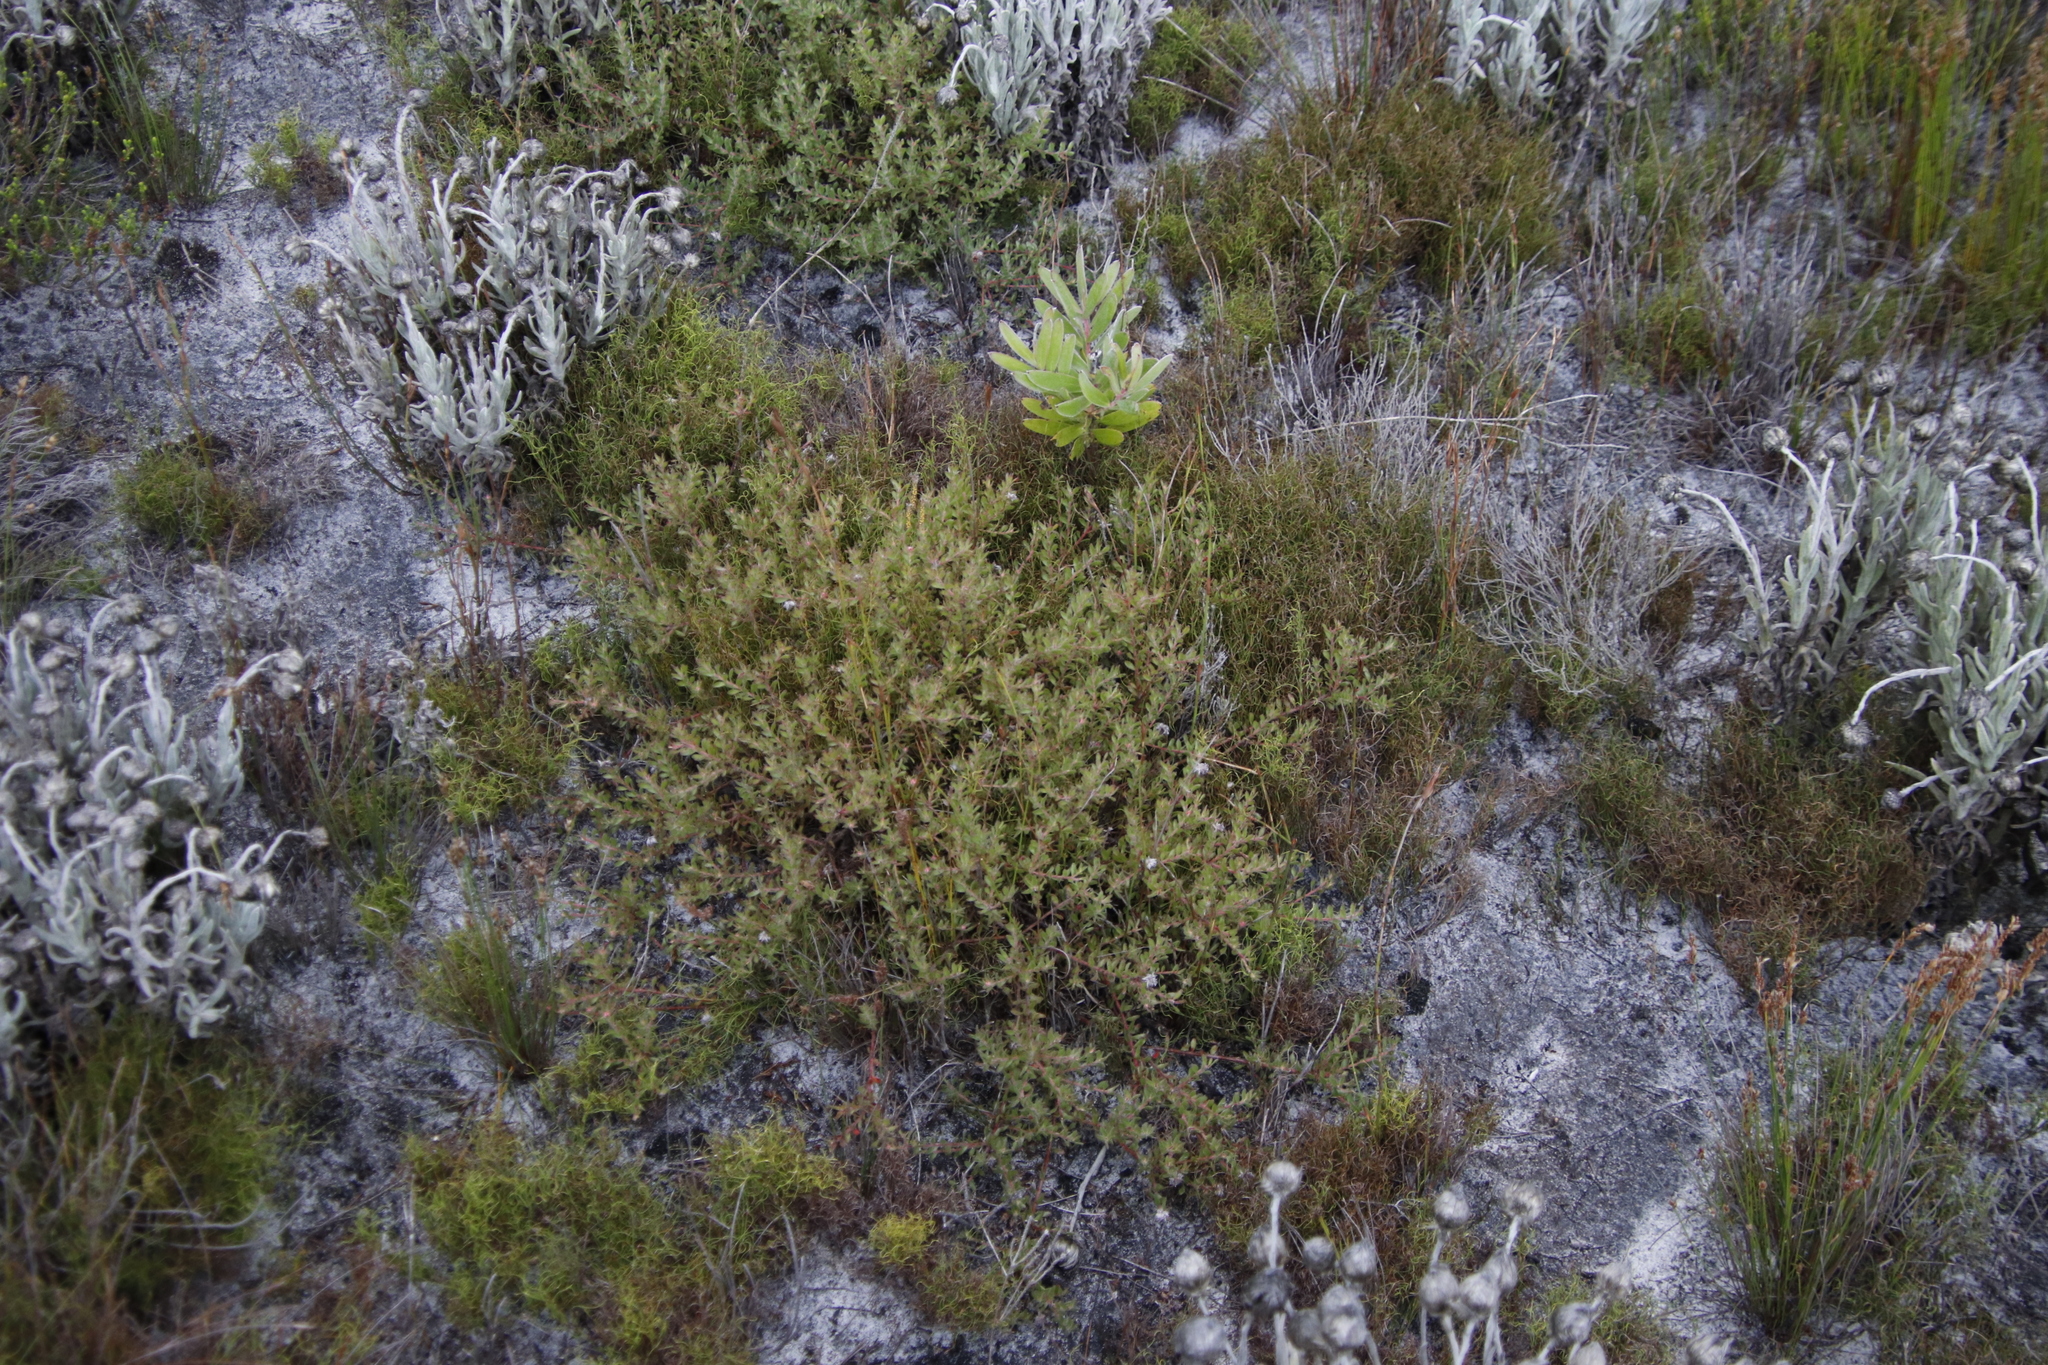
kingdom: Plantae
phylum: Tracheophyta
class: Magnoliopsida
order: Proteales
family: Proteaceae
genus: Diastella
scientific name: Diastella divaricata
